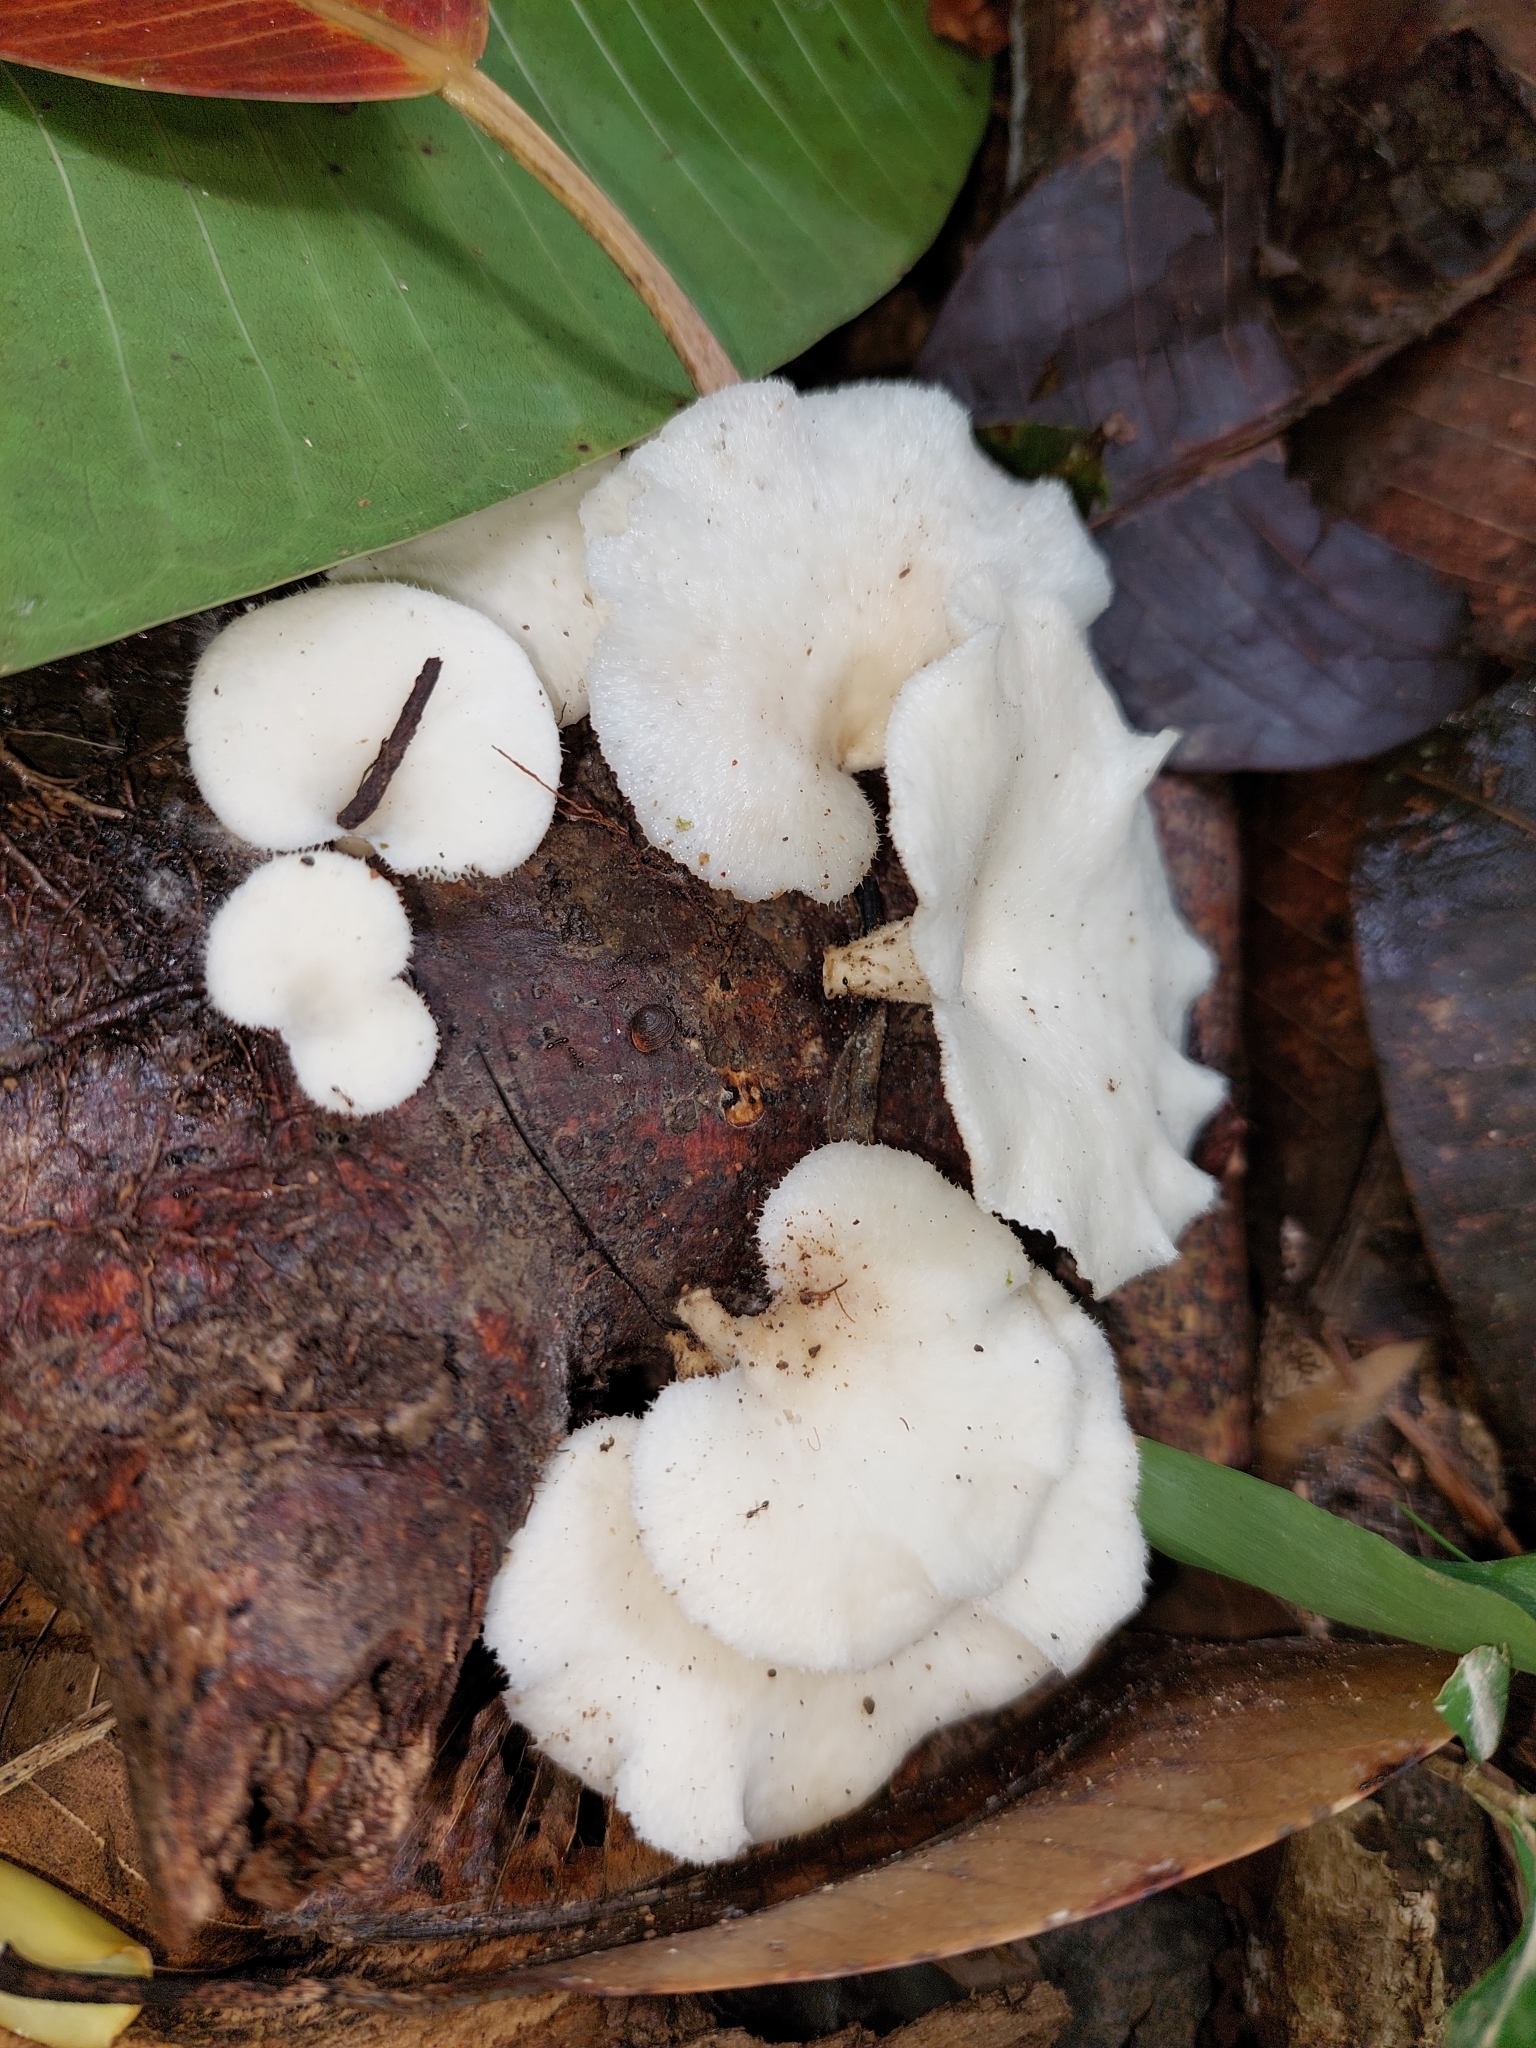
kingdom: Fungi
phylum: Basidiomycota
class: Agaricomycetes
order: Polyporales
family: Polyporaceae
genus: Favolus
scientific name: Favolus tenuiculus
